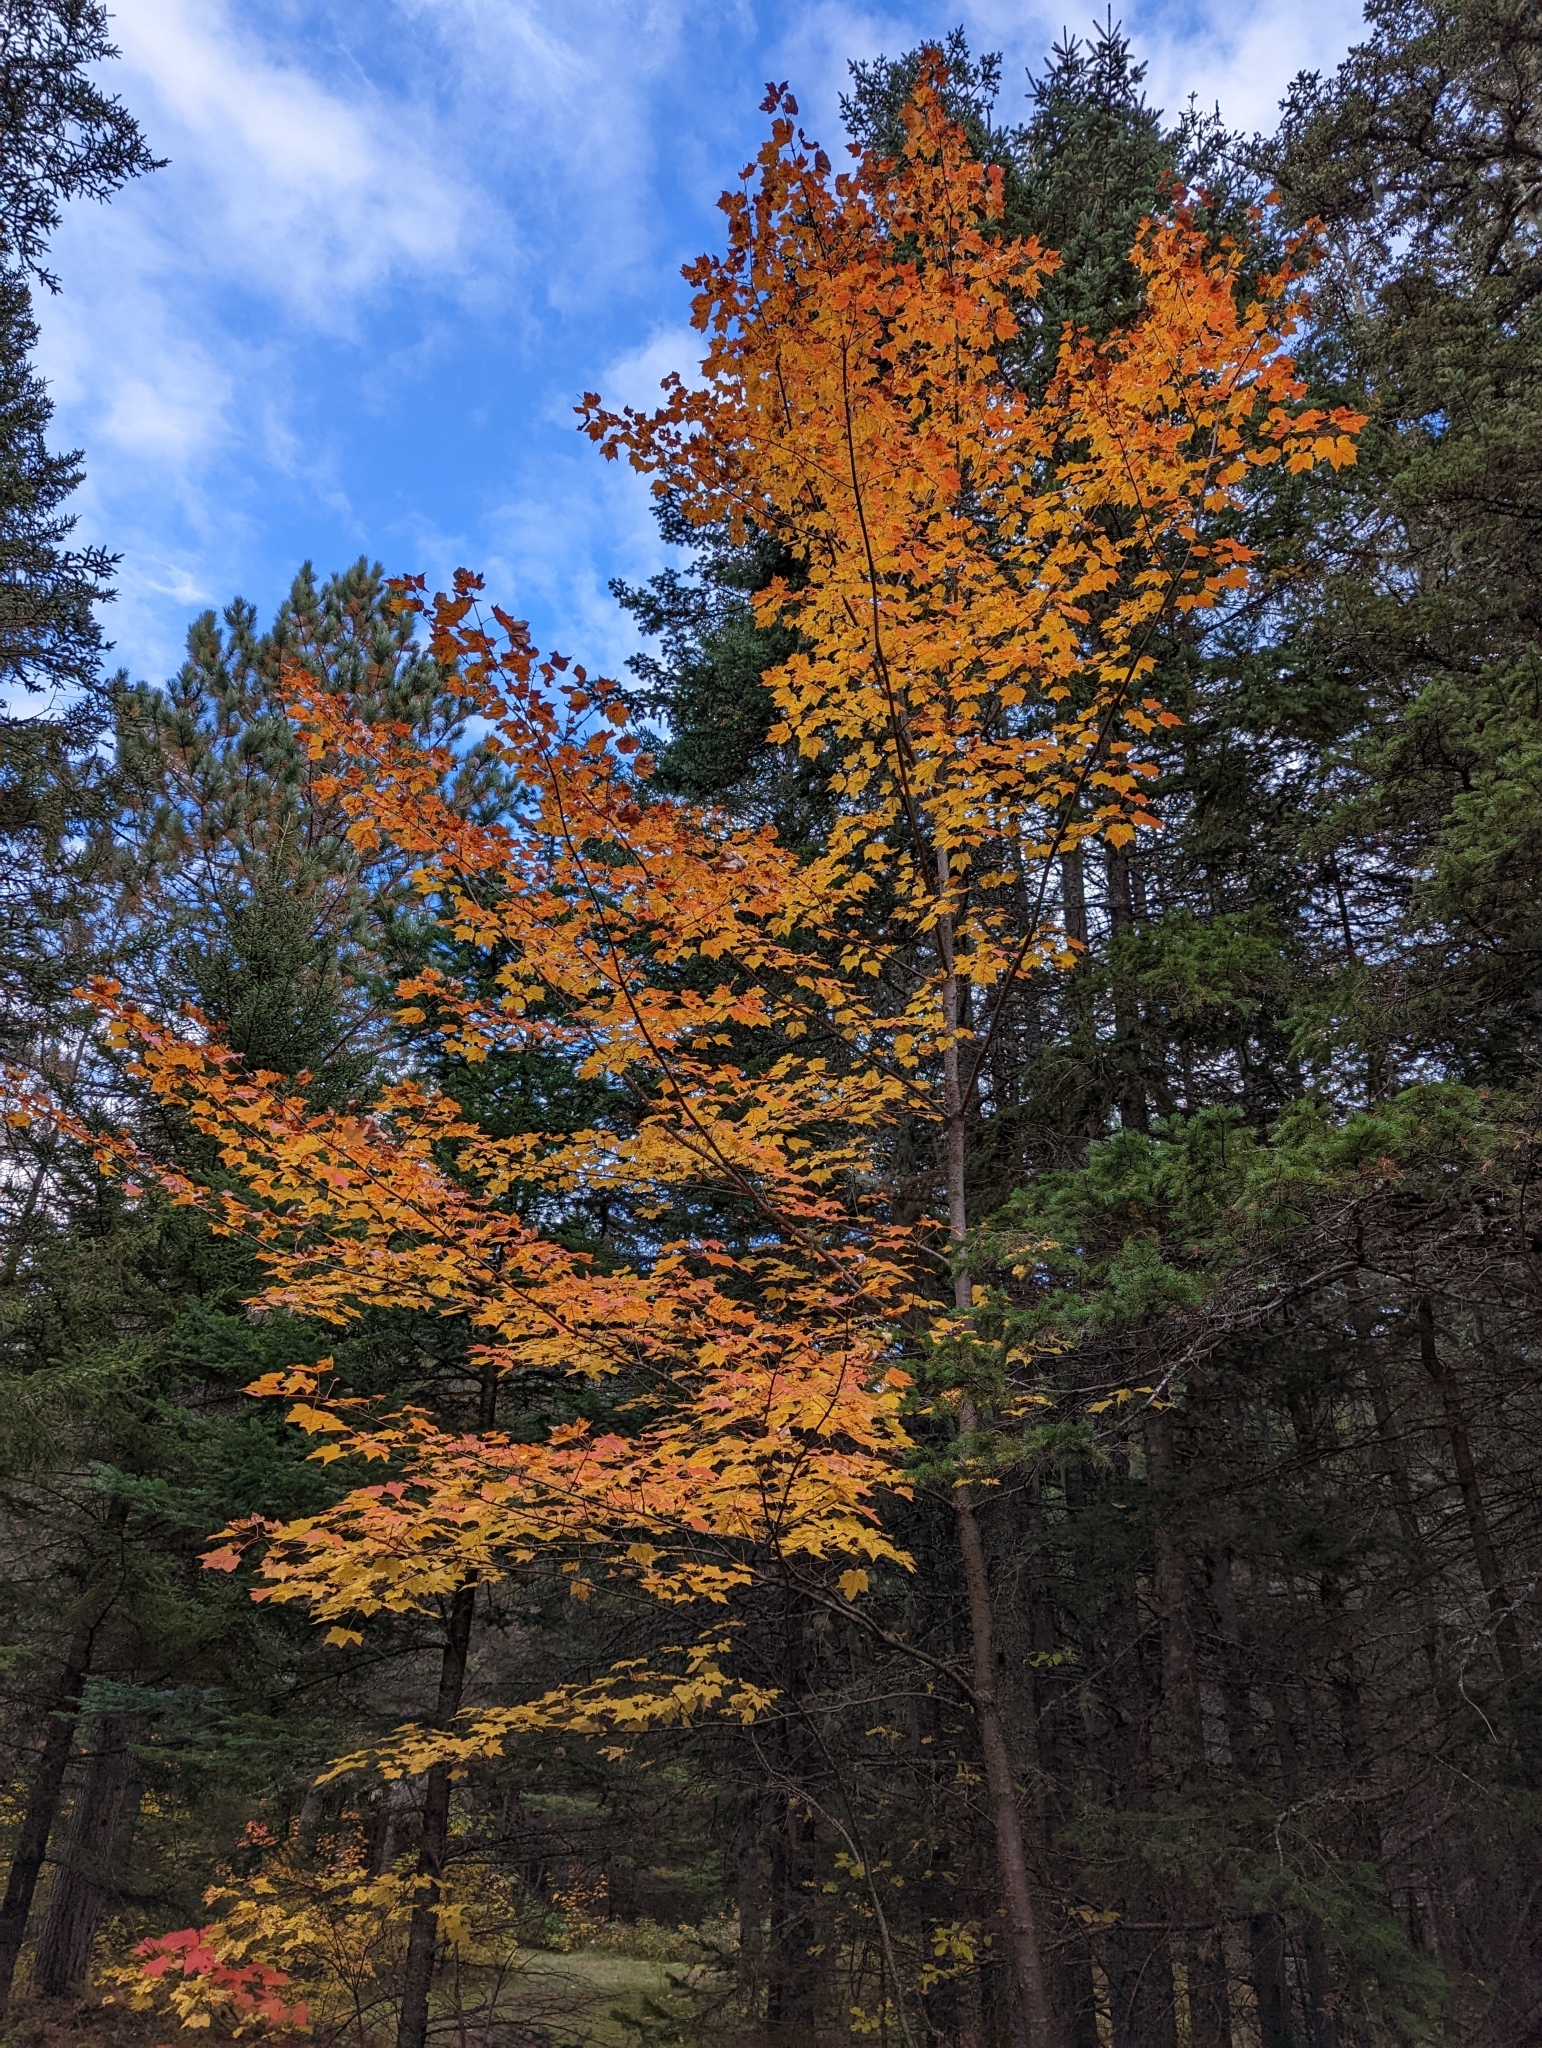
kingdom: Plantae
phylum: Tracheophyta
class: Magnoliopsida
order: Sapindales
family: Sapindaceae
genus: Acer
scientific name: Acer rubrum
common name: Red maple
